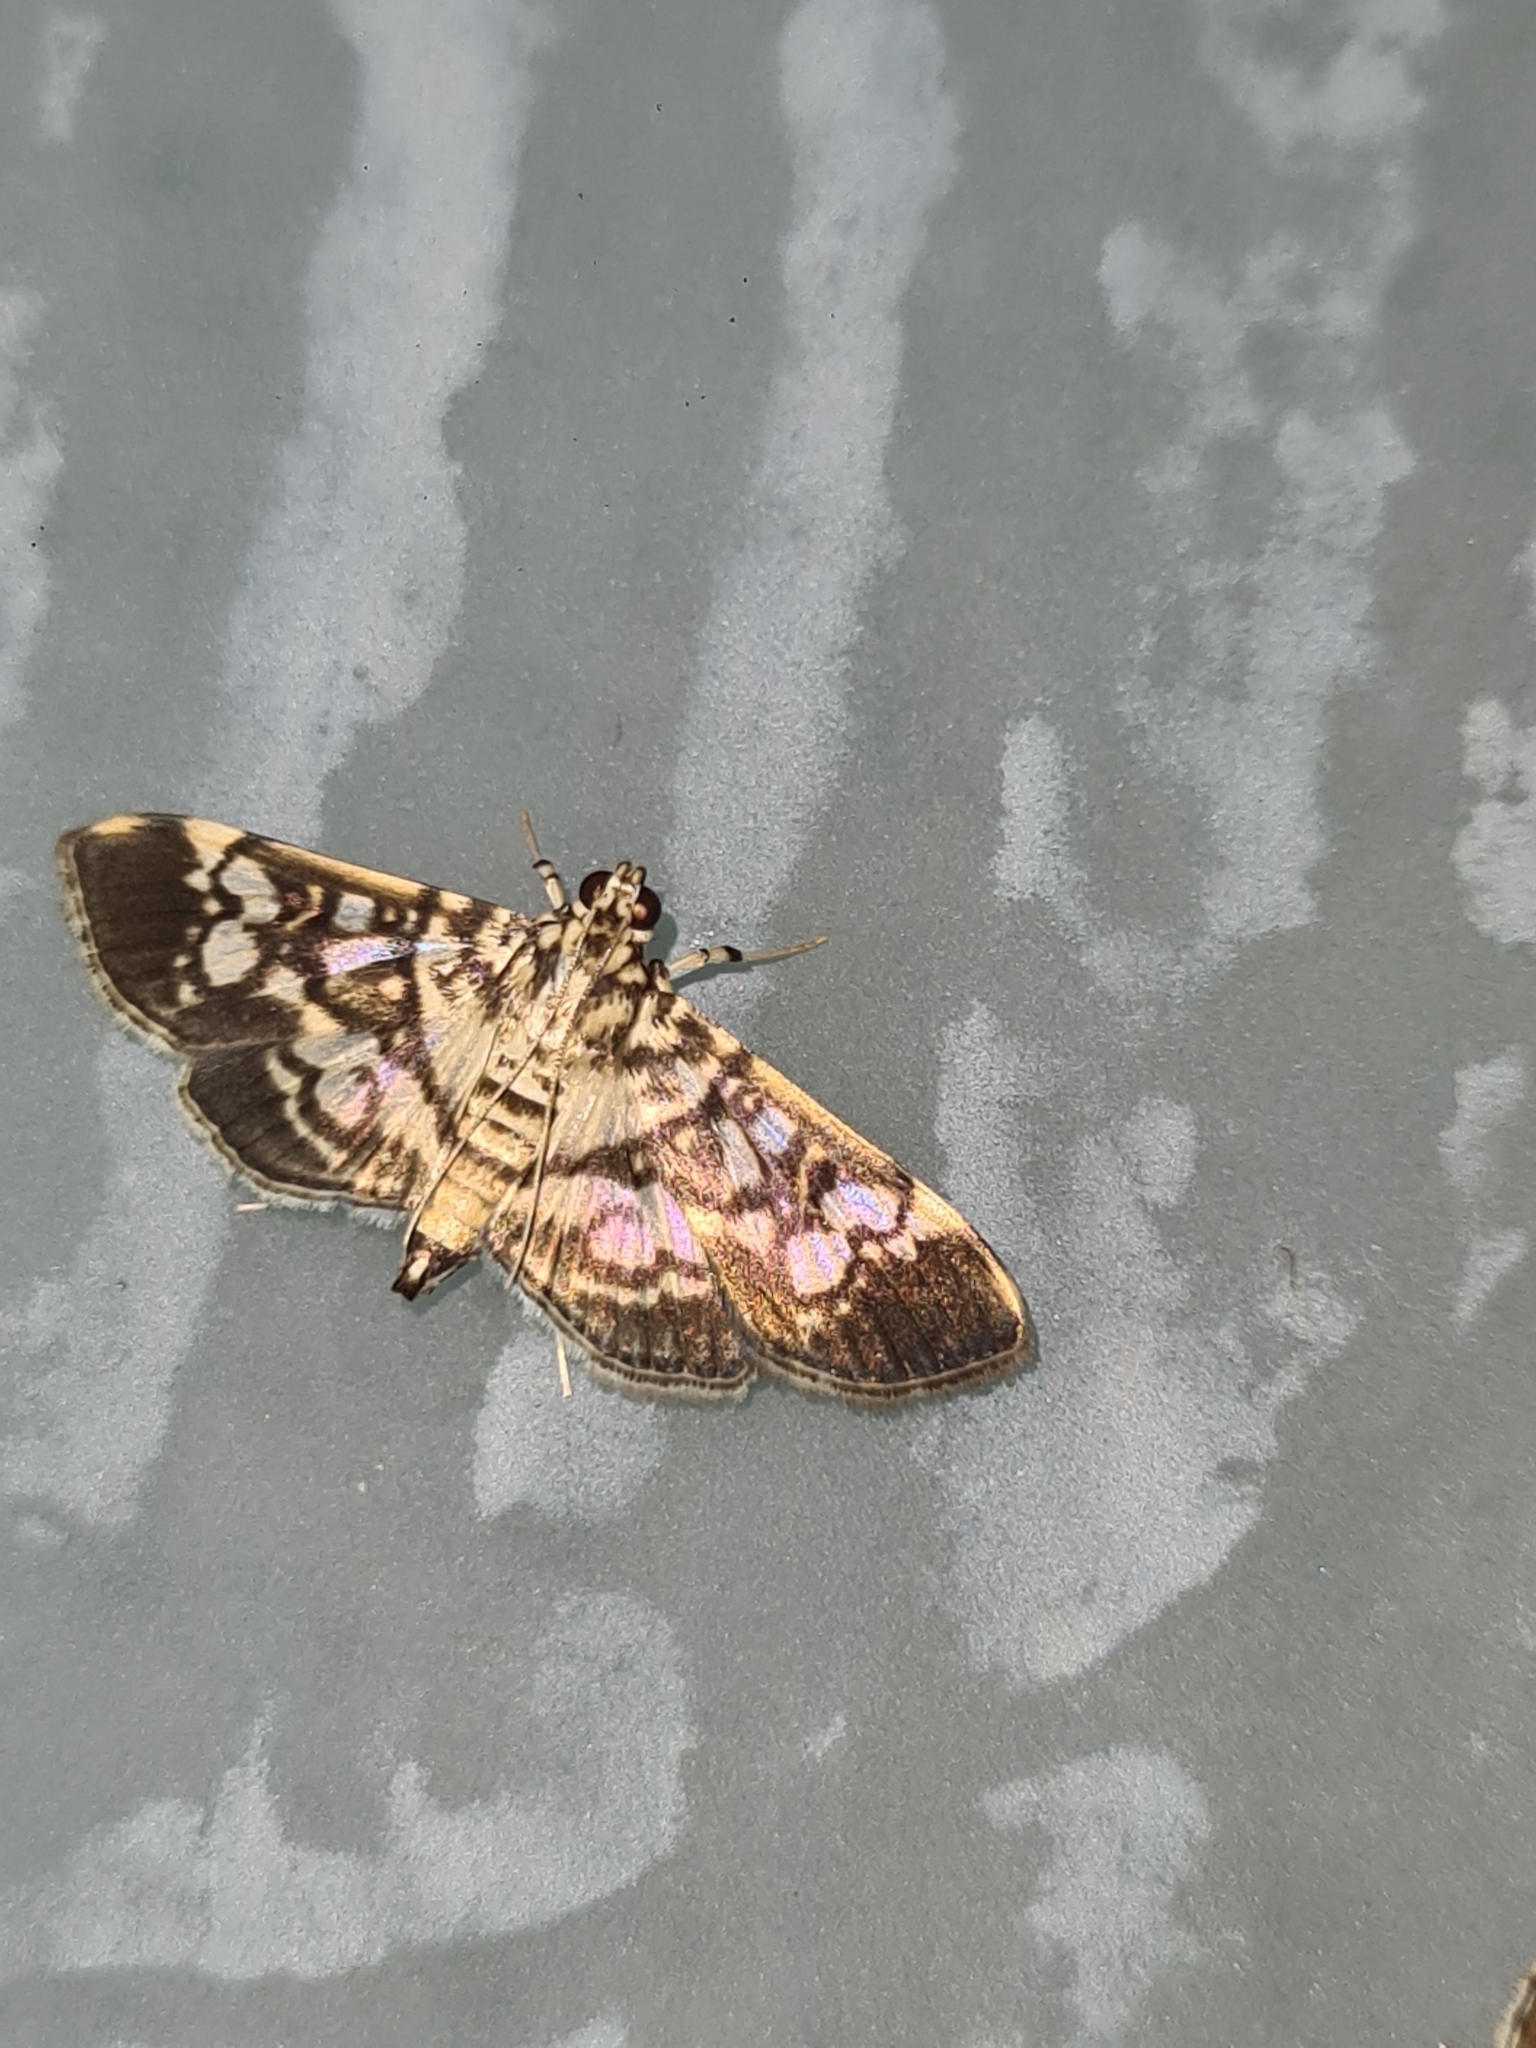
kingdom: Animalia
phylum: Arthropoda
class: Insecta
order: Lepidoptera
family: Crambidae
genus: Phostria
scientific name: Phostria samealis
